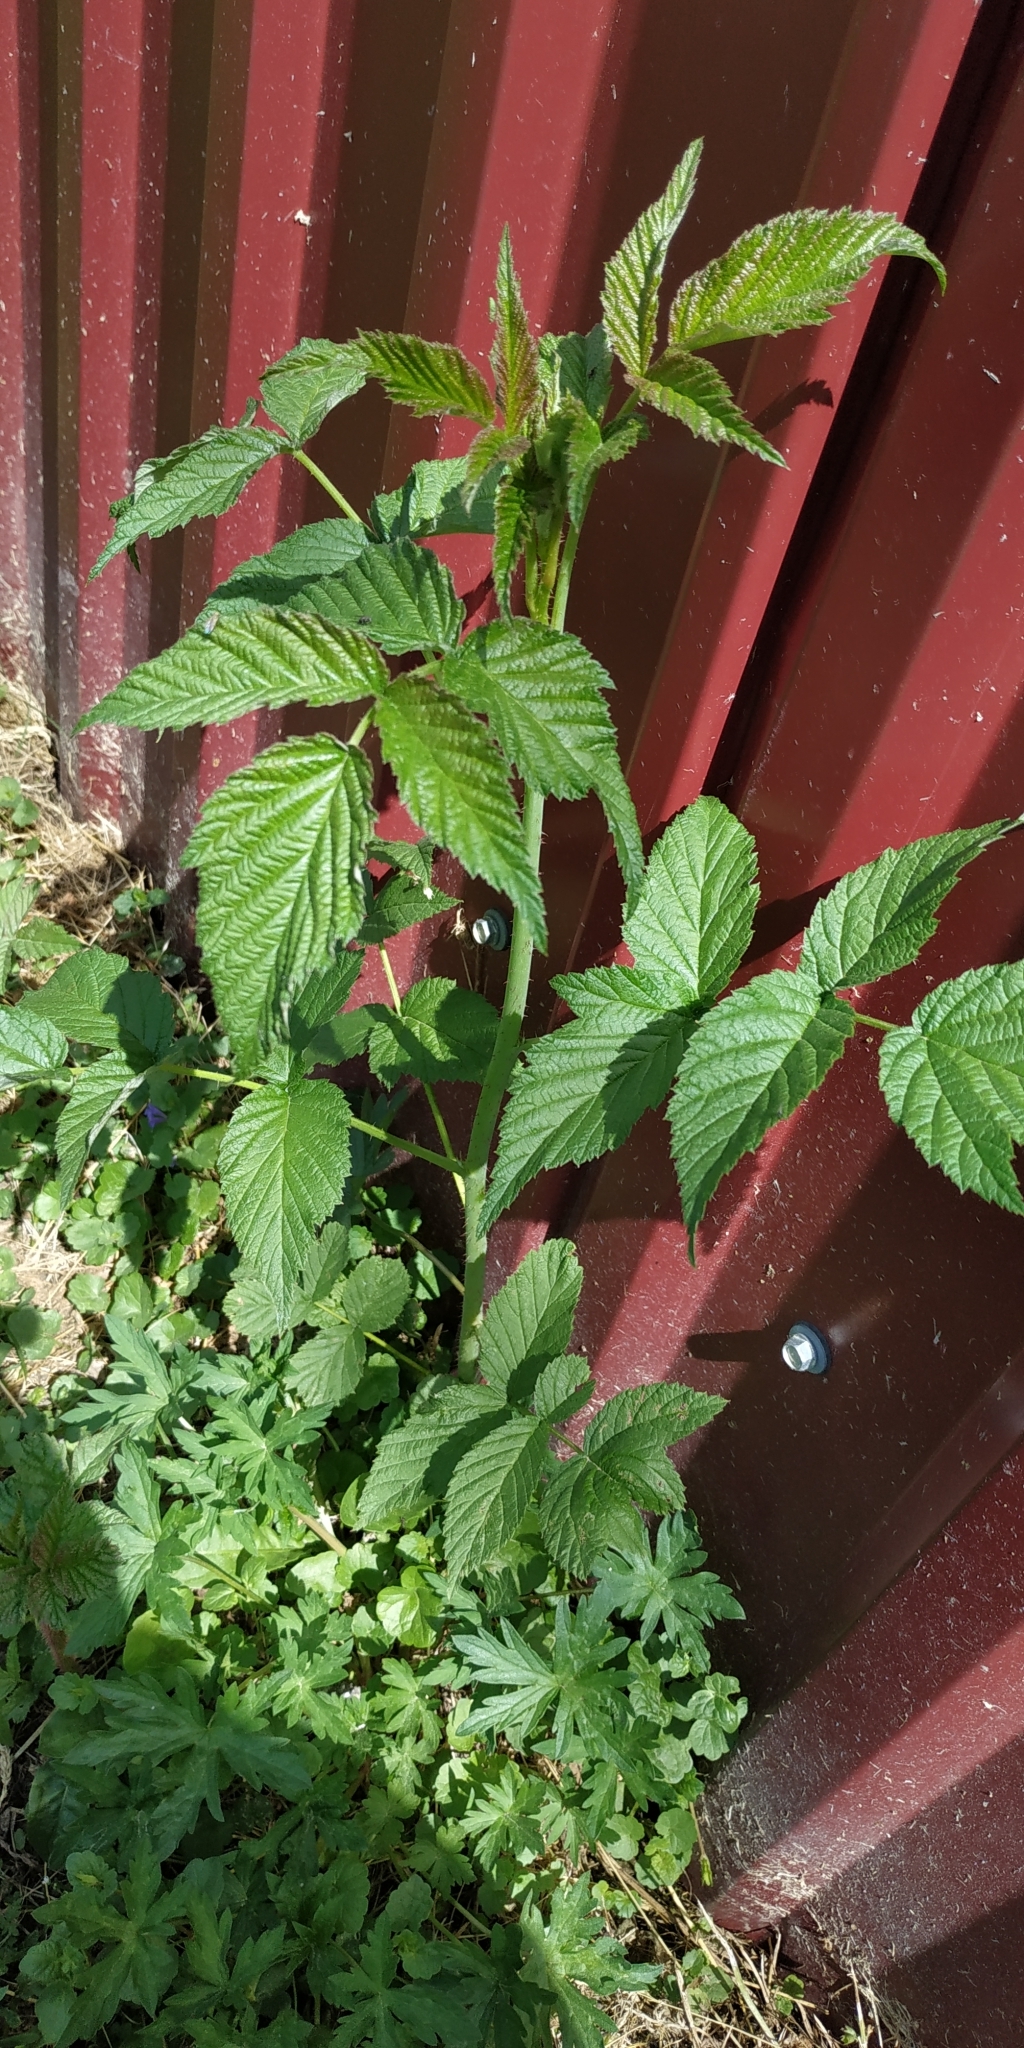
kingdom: Plantae
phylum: Tracheophyta
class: Magnoliopsida
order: Rosales
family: Rosaceae
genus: Rubus
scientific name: Rubus idaeus
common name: Raspberry
